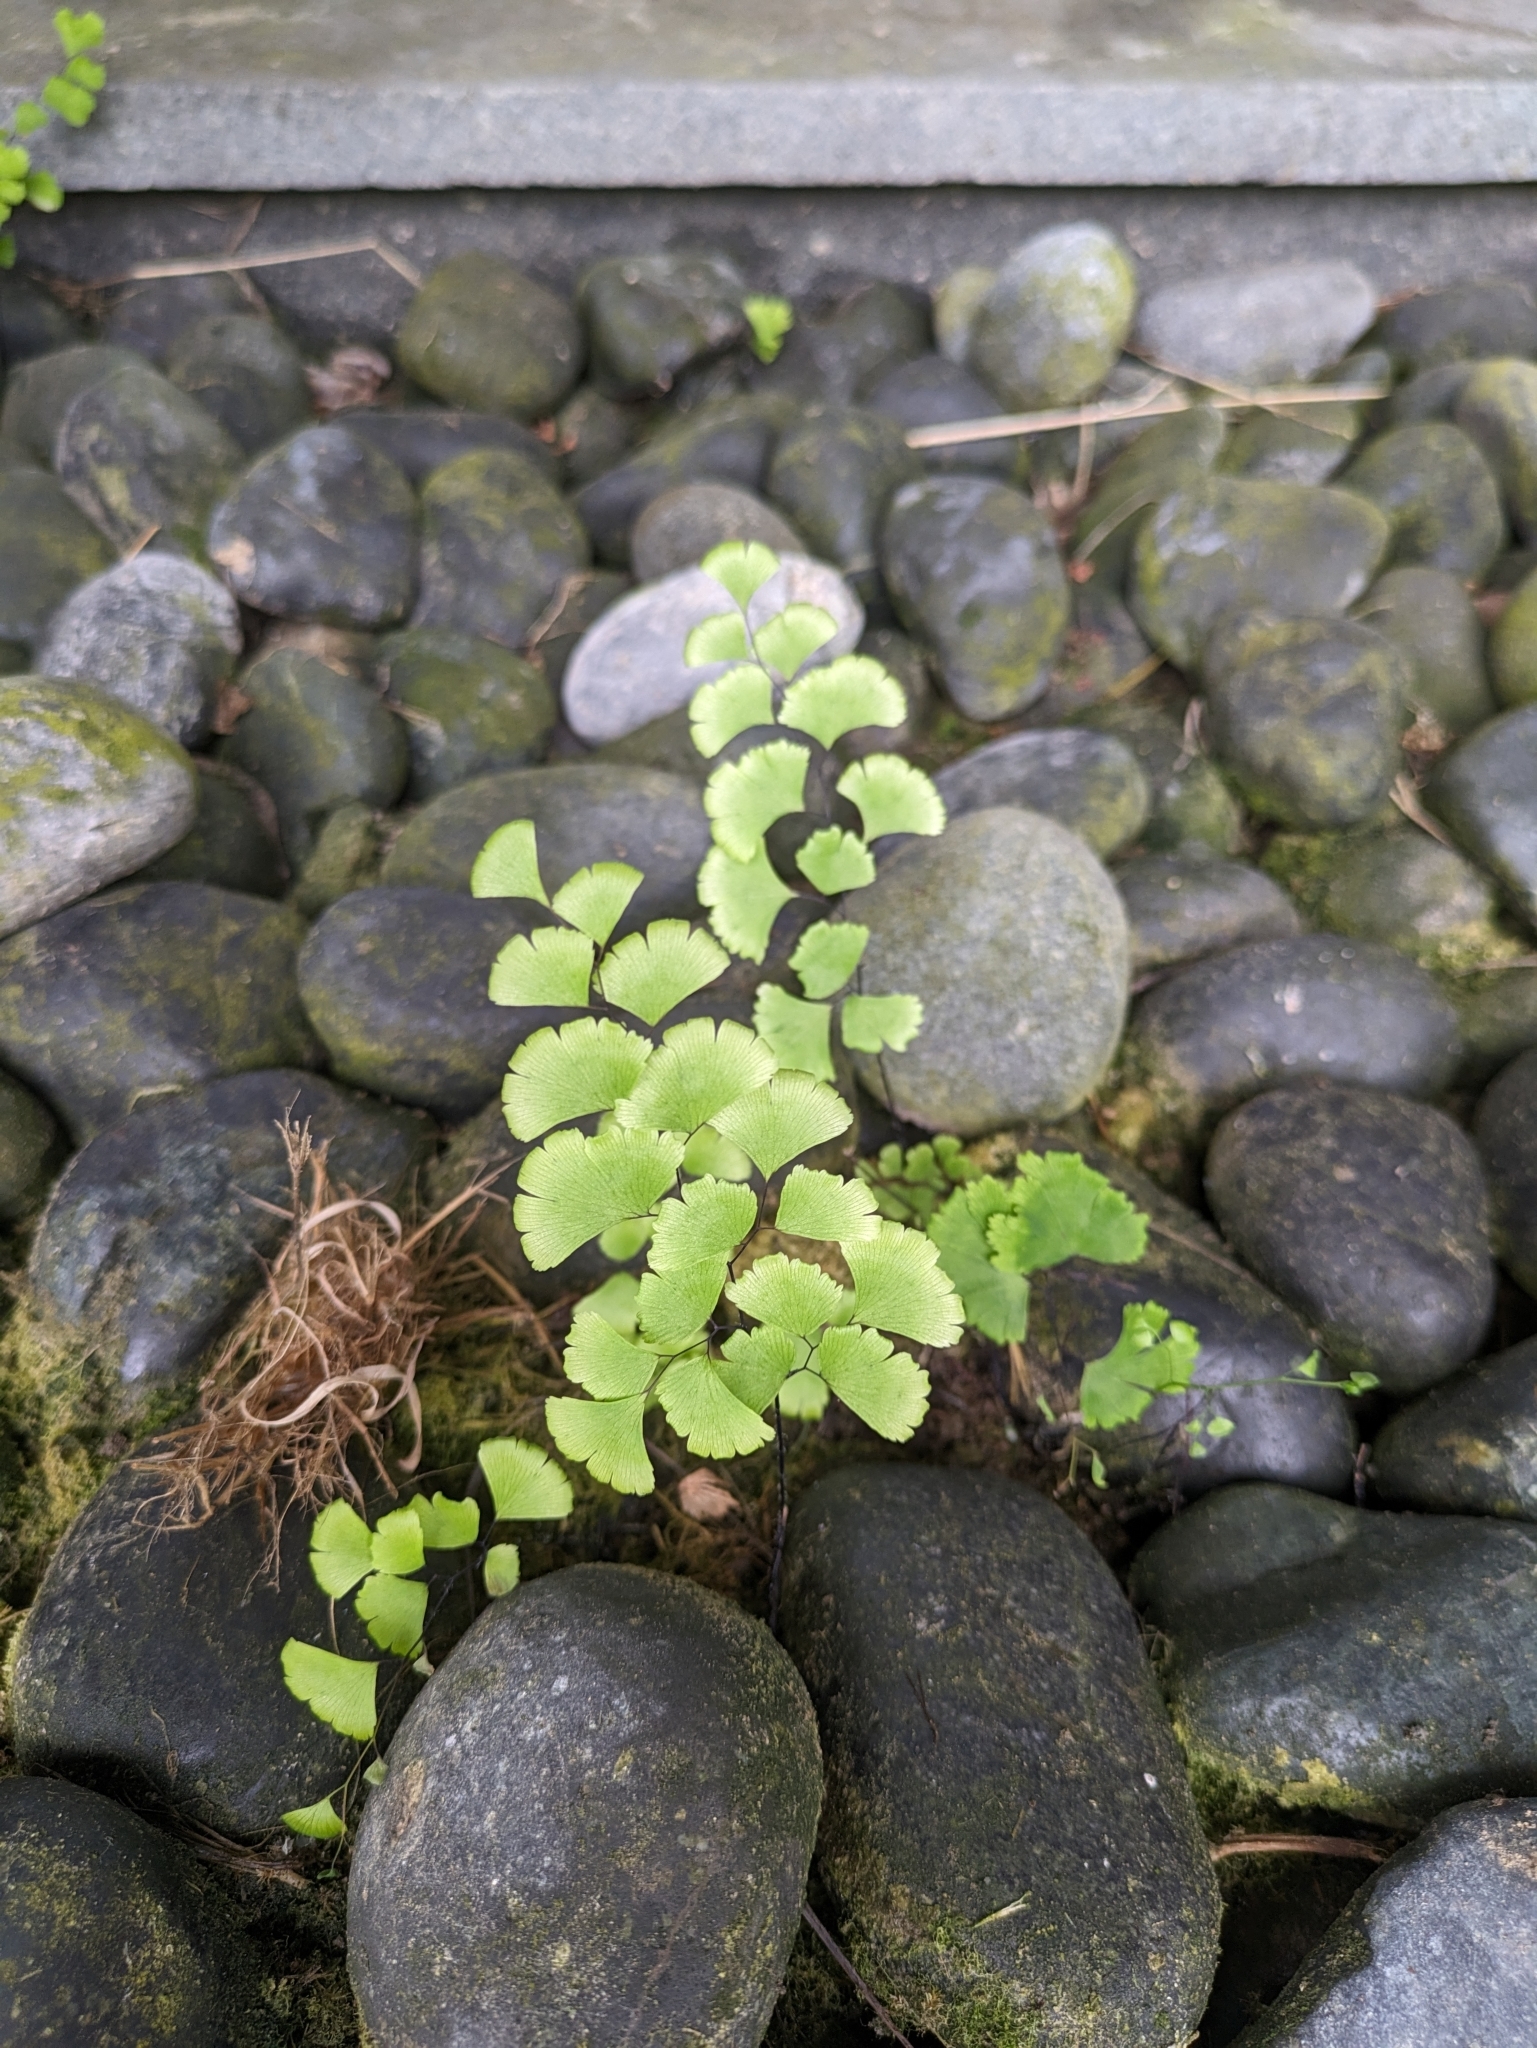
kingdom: Plantae
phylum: Tracheophyta
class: Polypodiopsida
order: Polypodiales
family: Pteridaceae
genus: Adiantum
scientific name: Adiantum capillus-veneris
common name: Maidenhair fern
